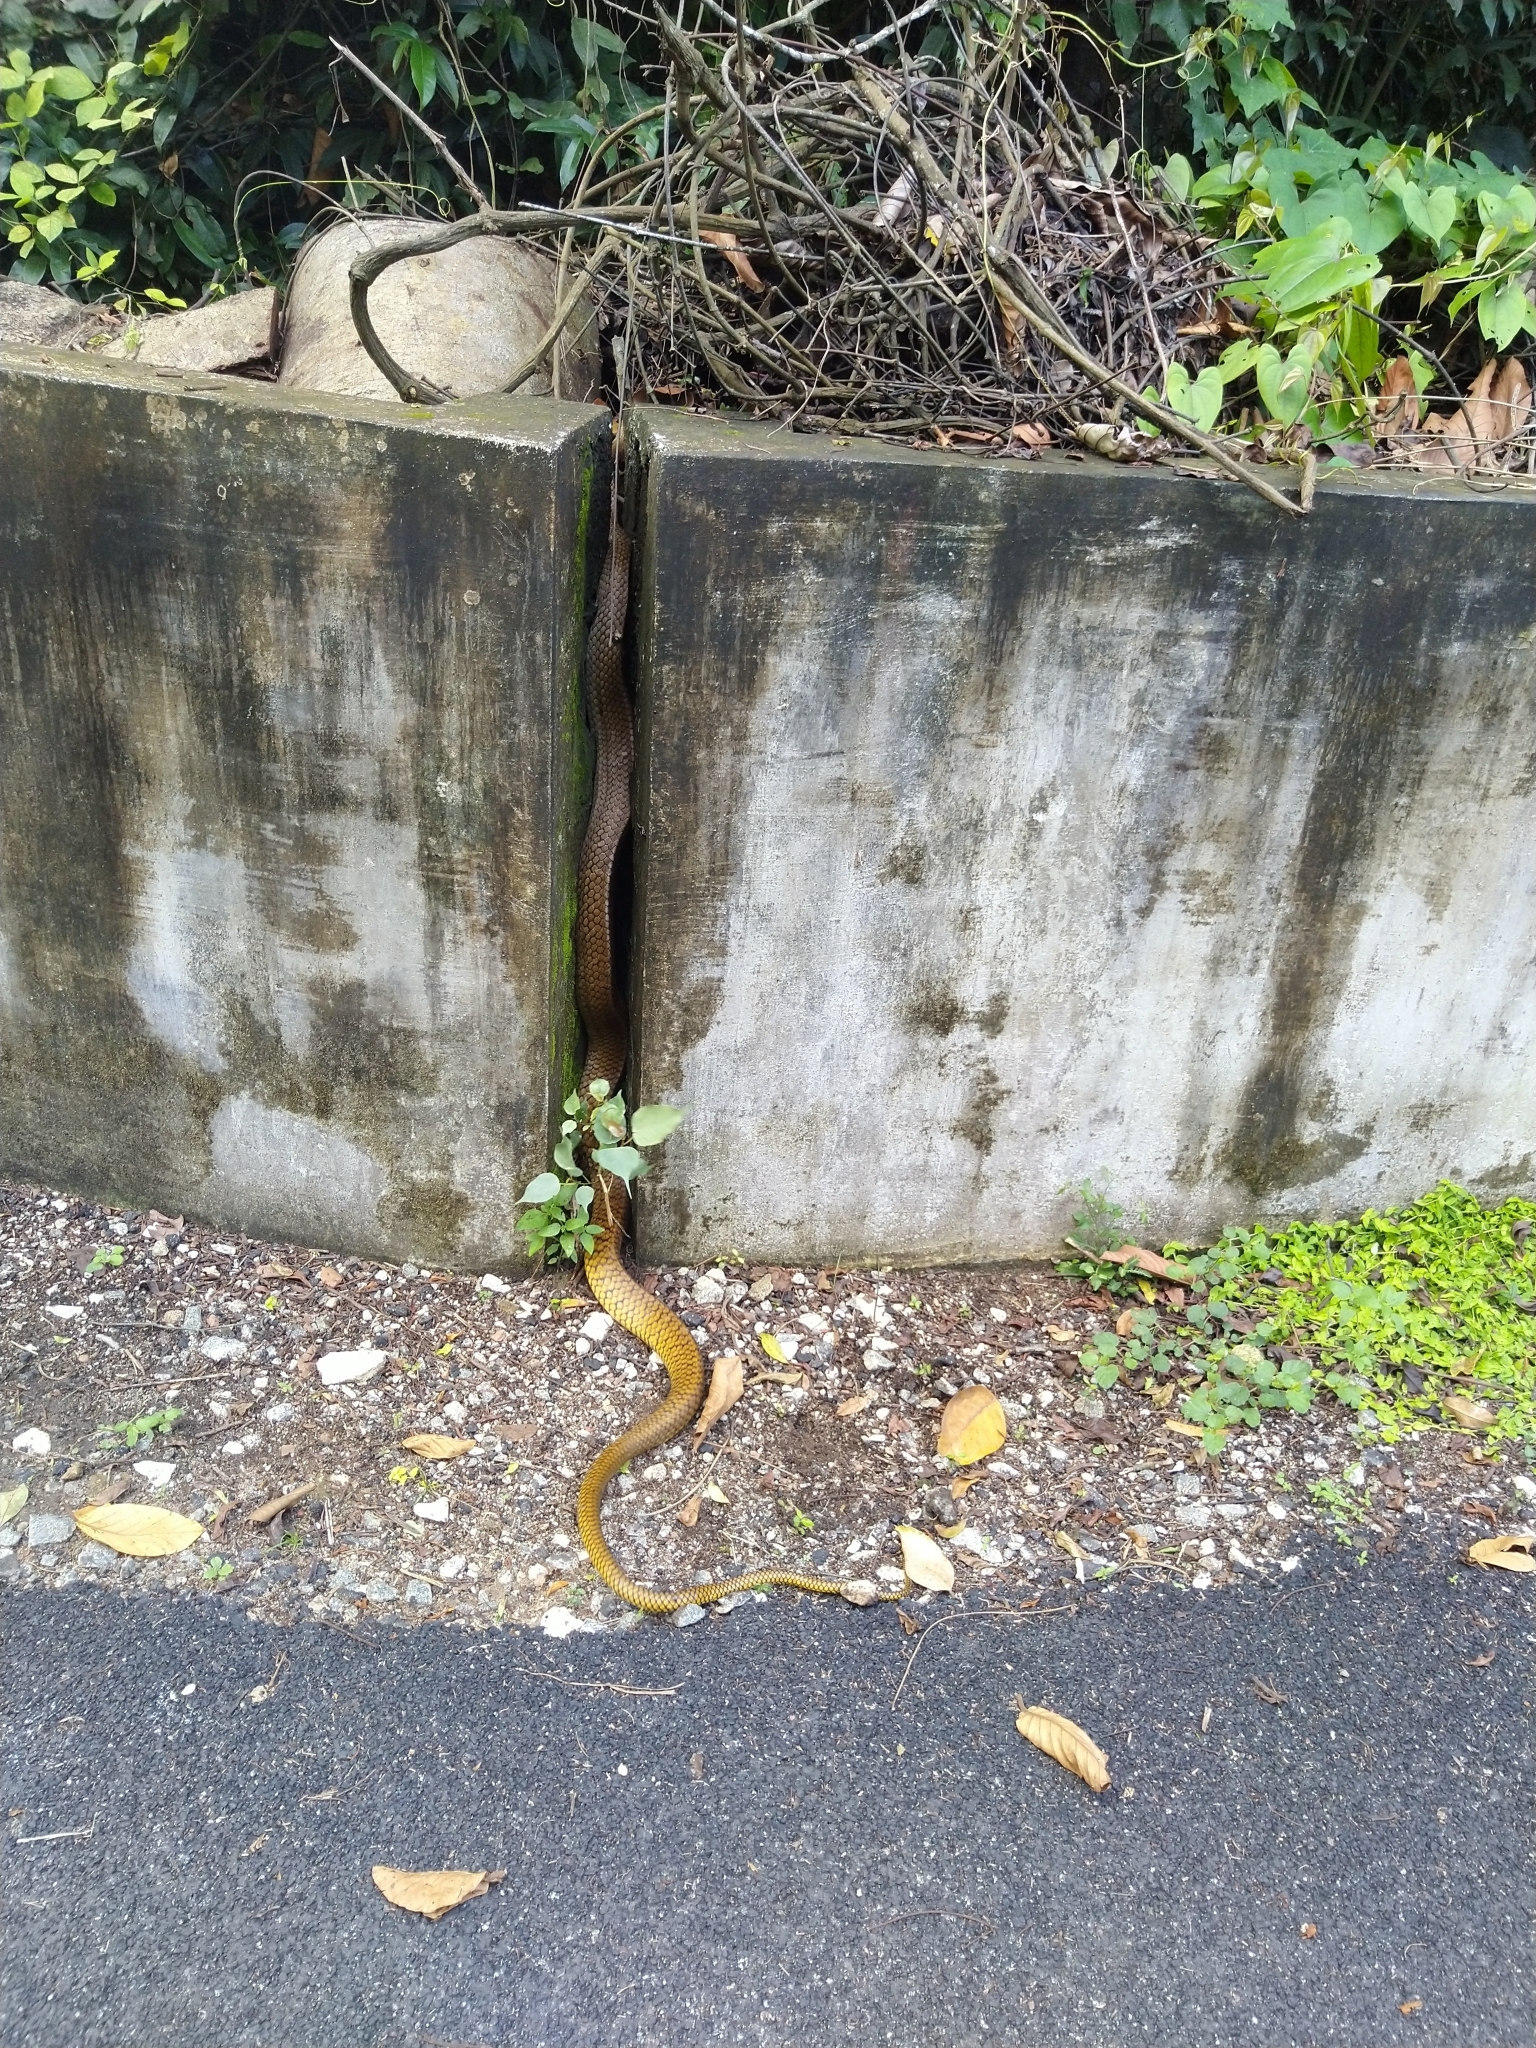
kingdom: Animalia
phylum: Chordata
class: Squamata
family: Colubridae
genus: Ptyas
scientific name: Ptyas mucosa
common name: Oriental ratsnake
